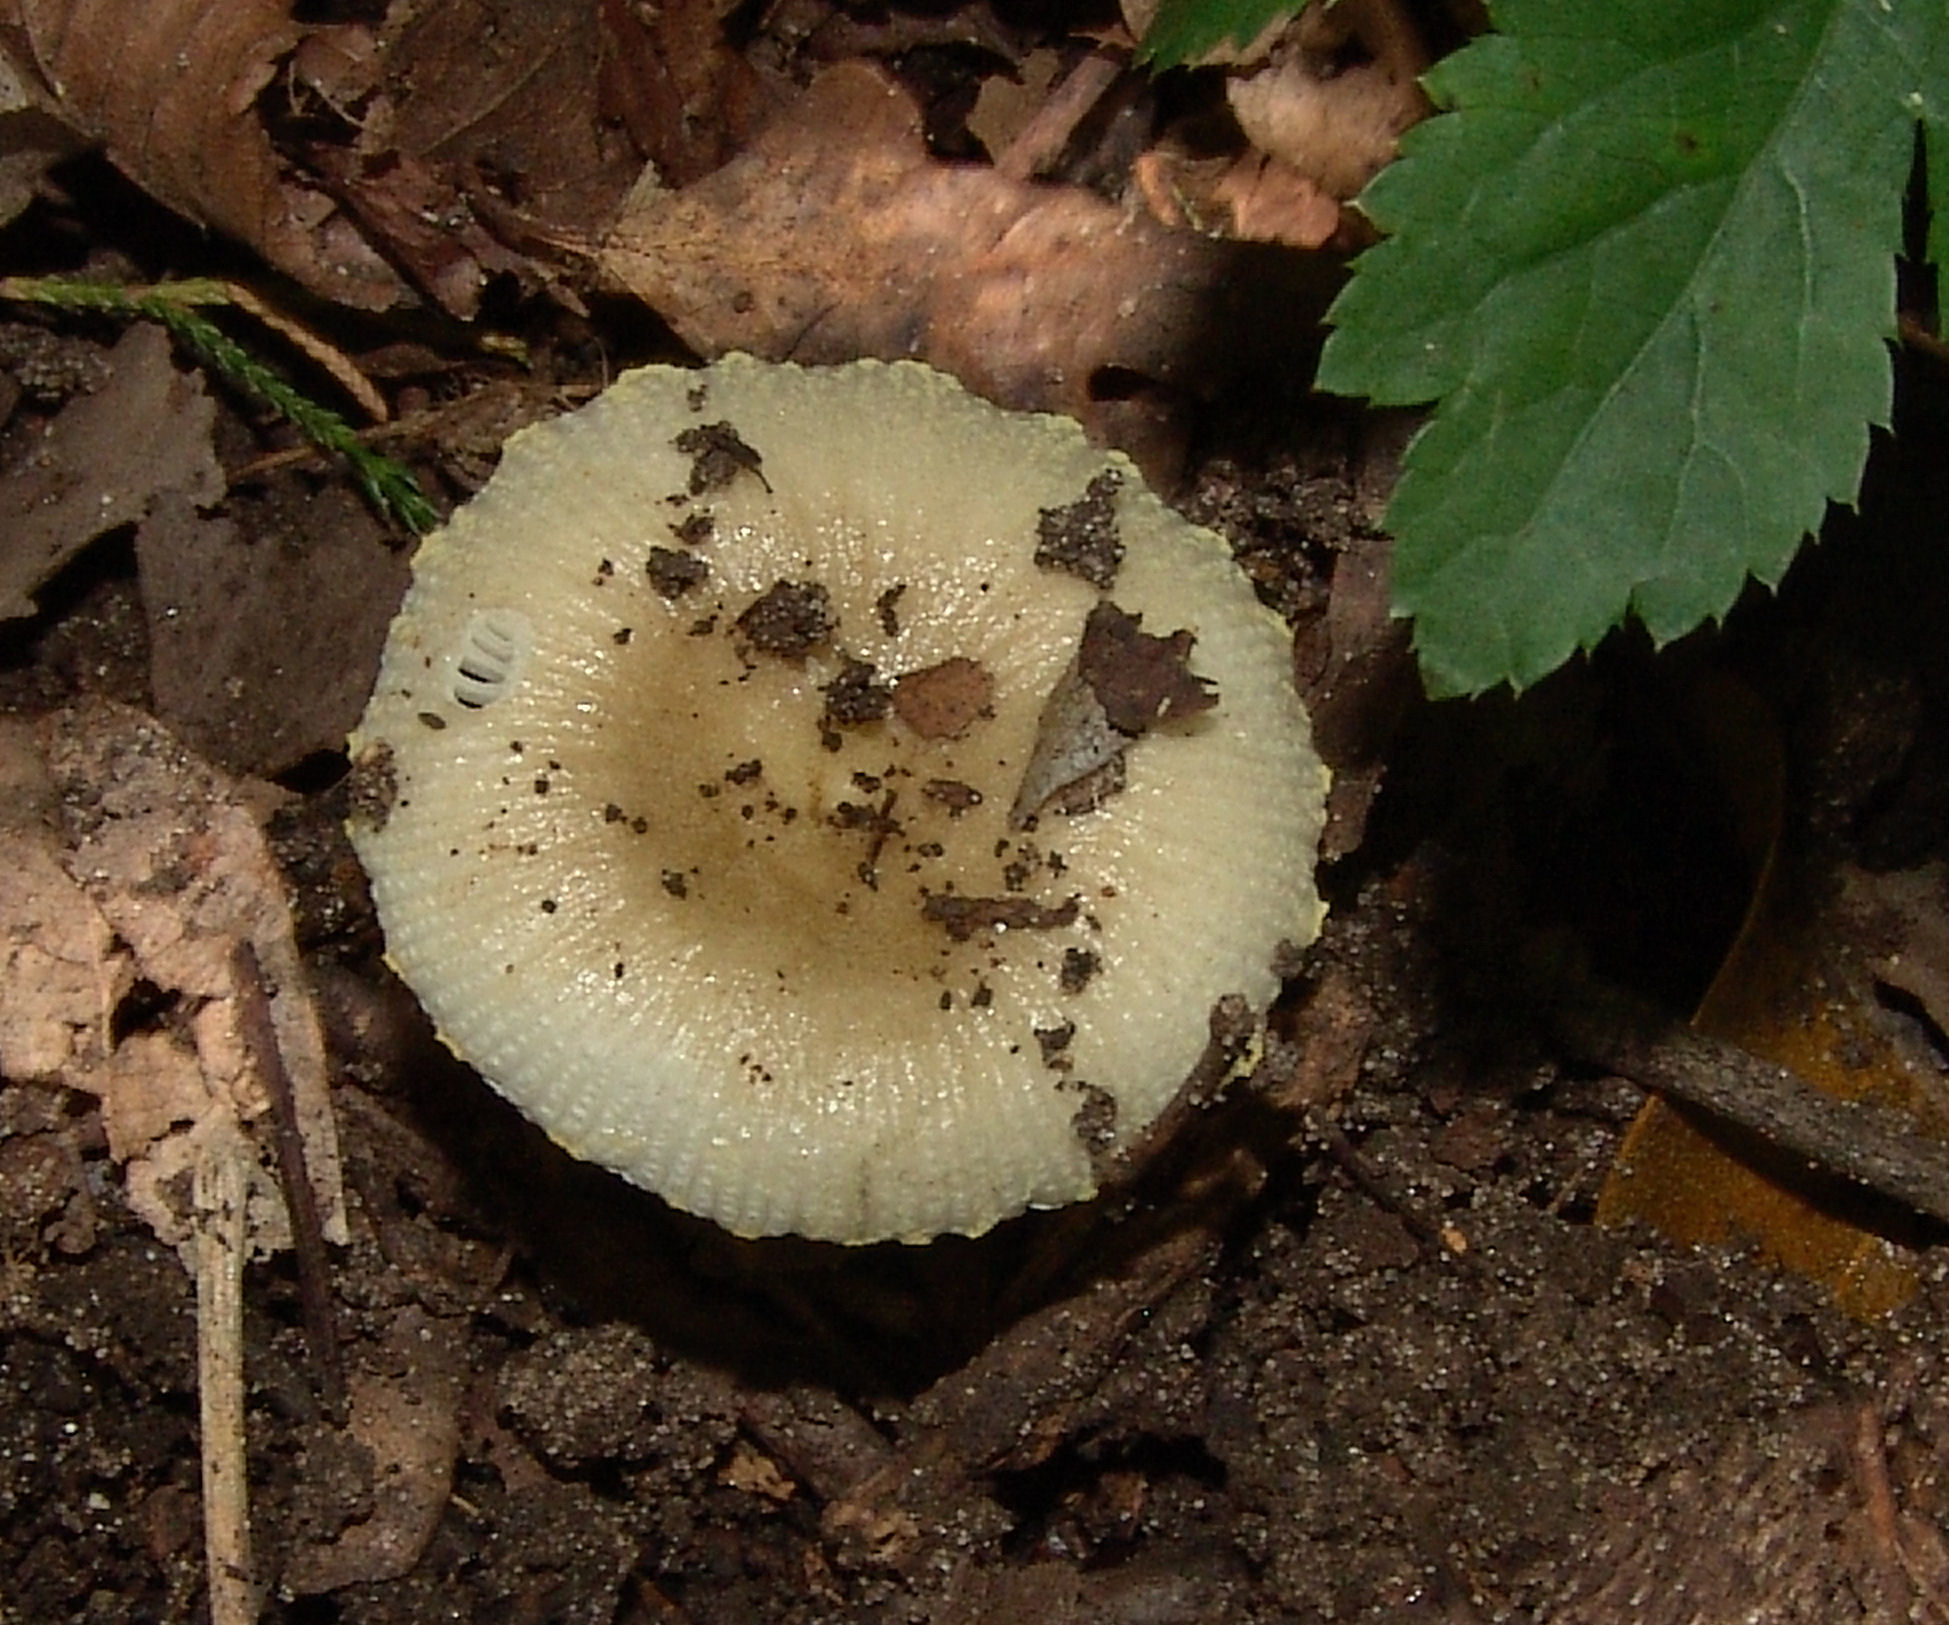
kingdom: Fungi
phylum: Basidiomycota
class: Agaricomycetes
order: Russulales
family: Russulaceae
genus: Russula
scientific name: Russula
